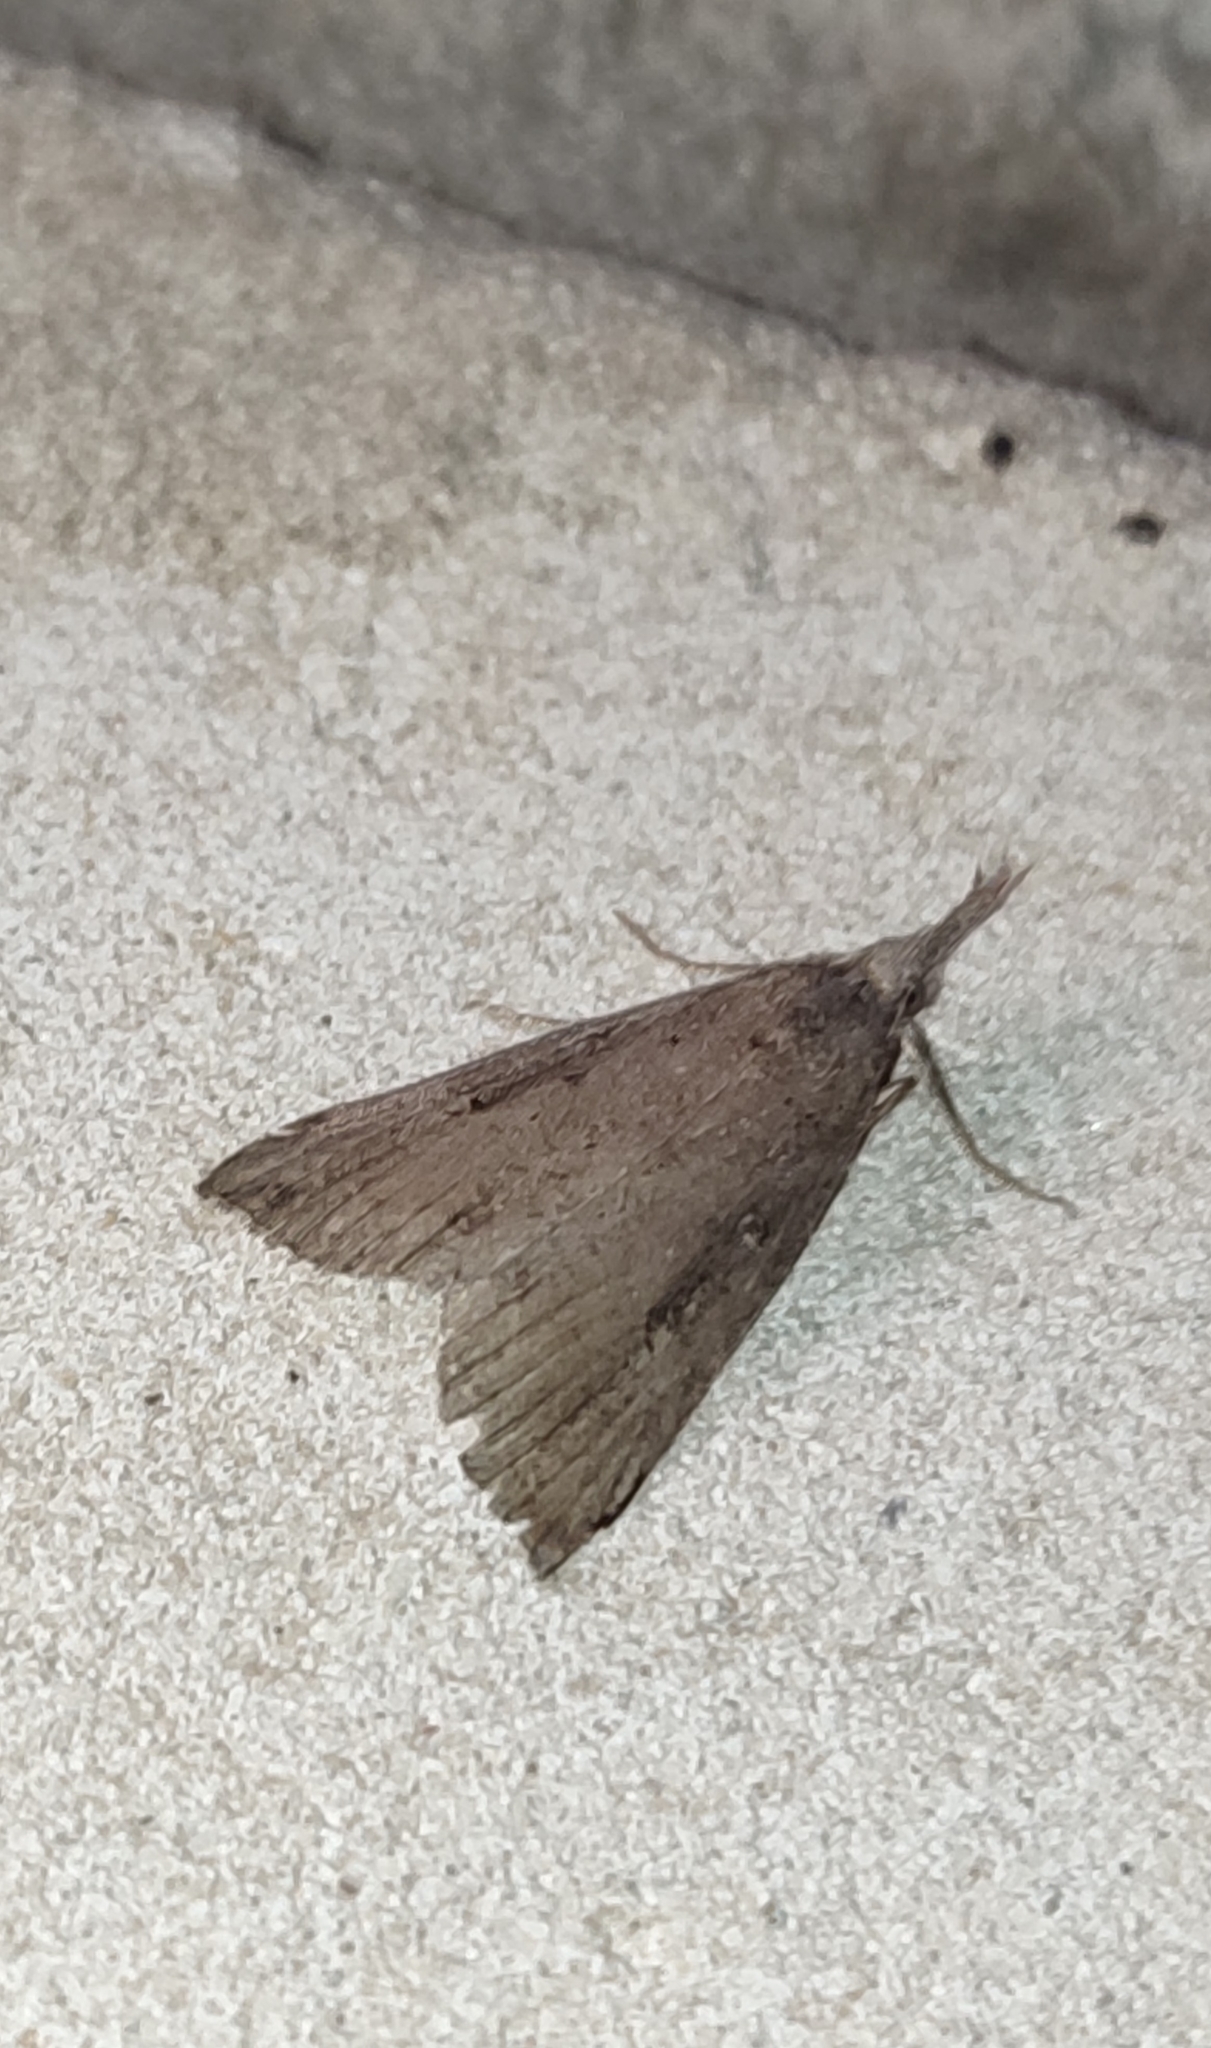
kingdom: Animalia
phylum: Arthropoda
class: Insecta
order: Lepidoptera
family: Erebidae
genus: Hypena
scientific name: Hypena rostralis
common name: Buttoned snout
